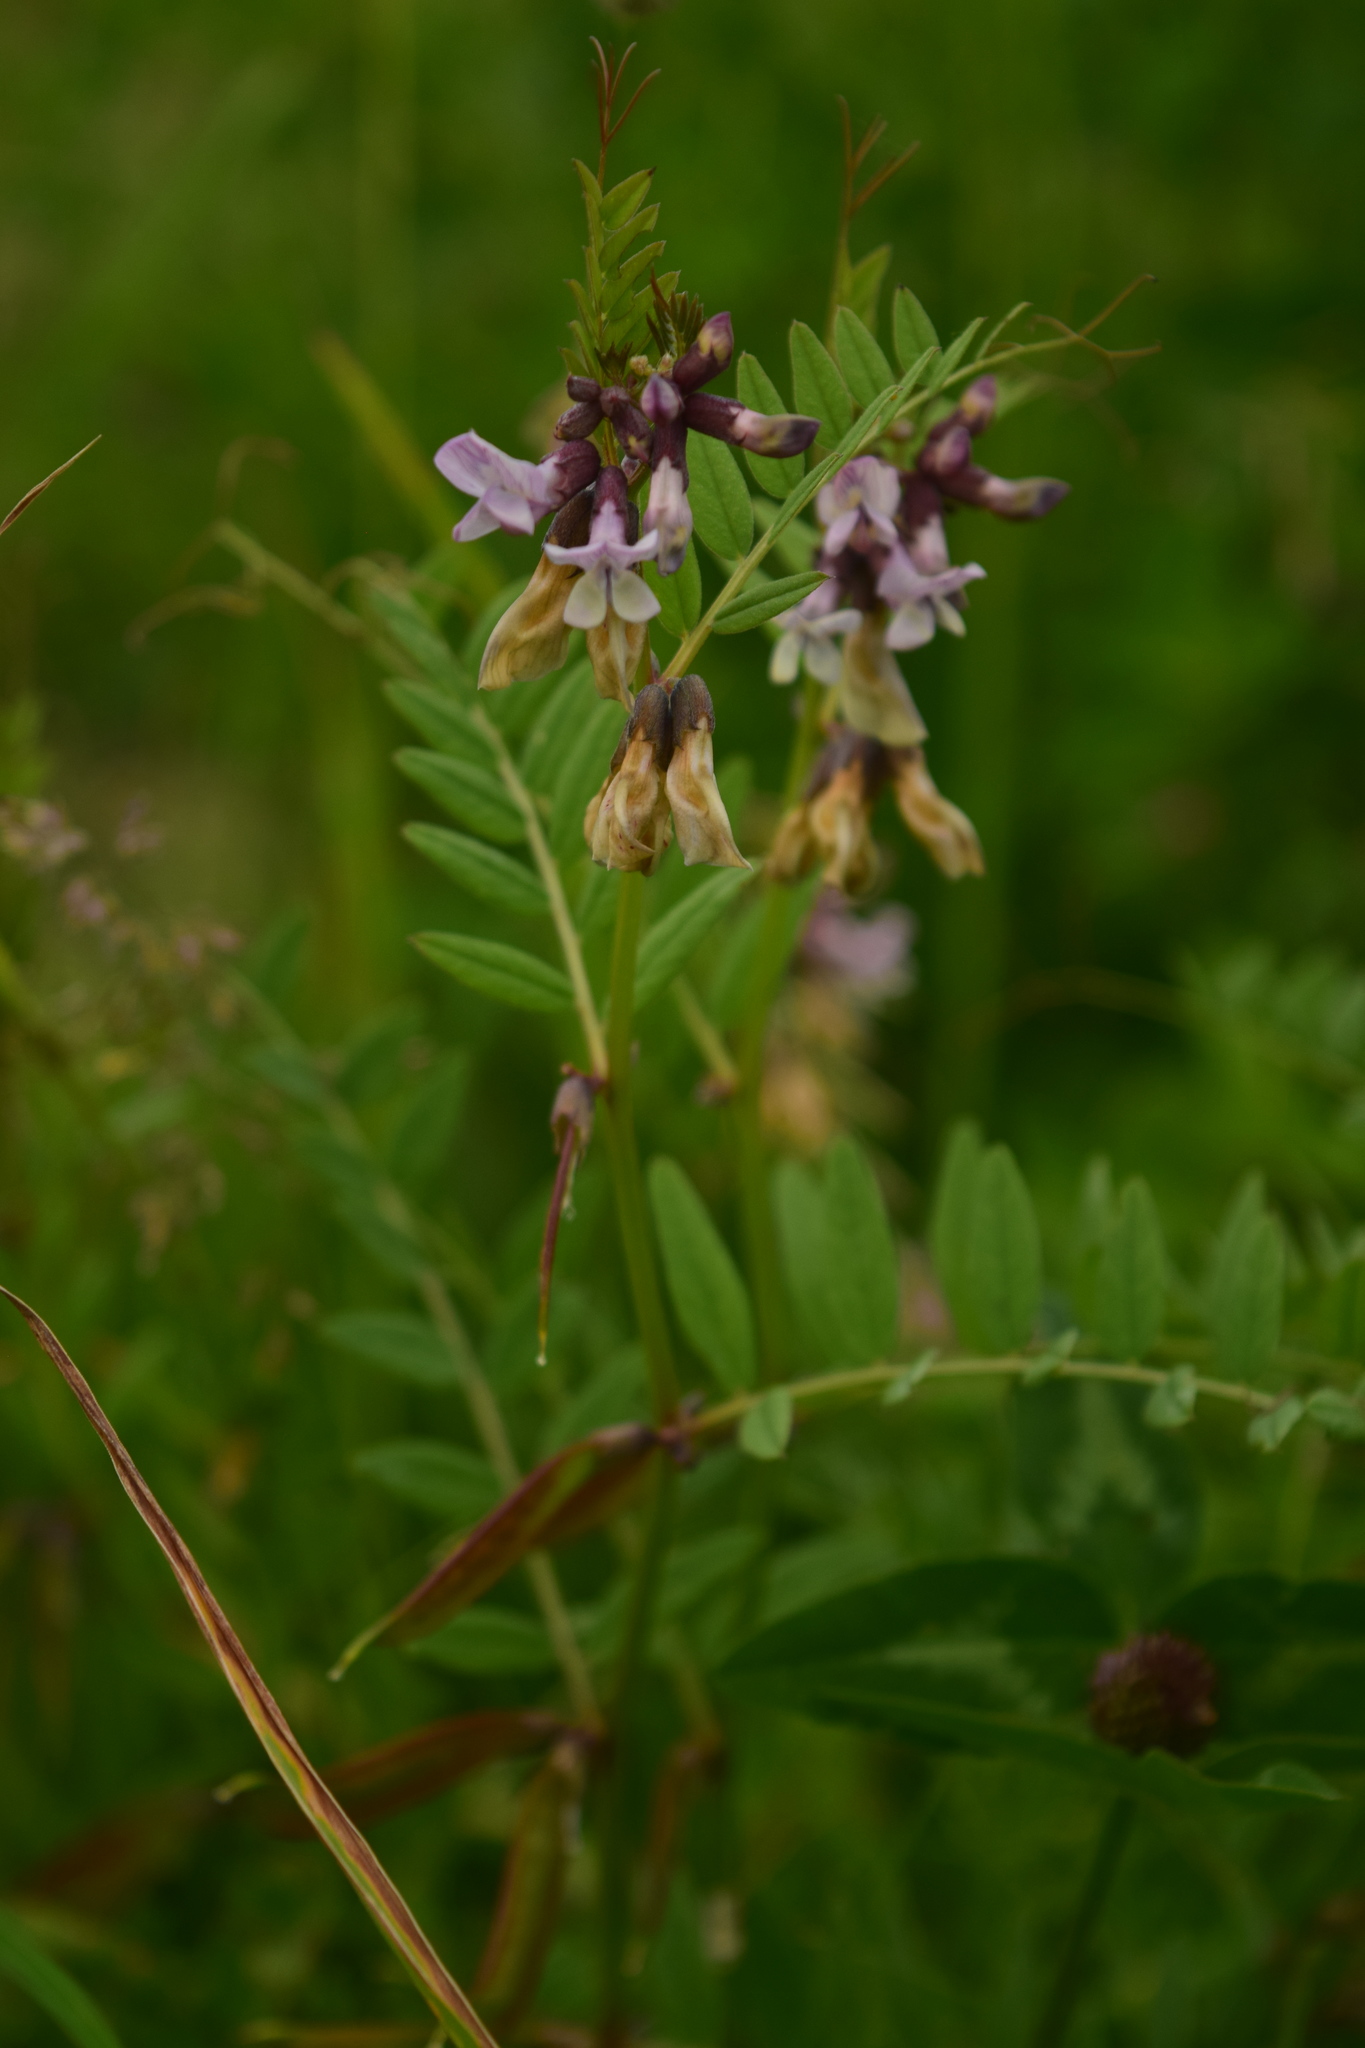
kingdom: Plantae
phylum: Tracheophyta
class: Magnoliopsida
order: Fabales
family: Fabaceae
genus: Vicia
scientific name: Vicia sepium
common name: Bush vetch
